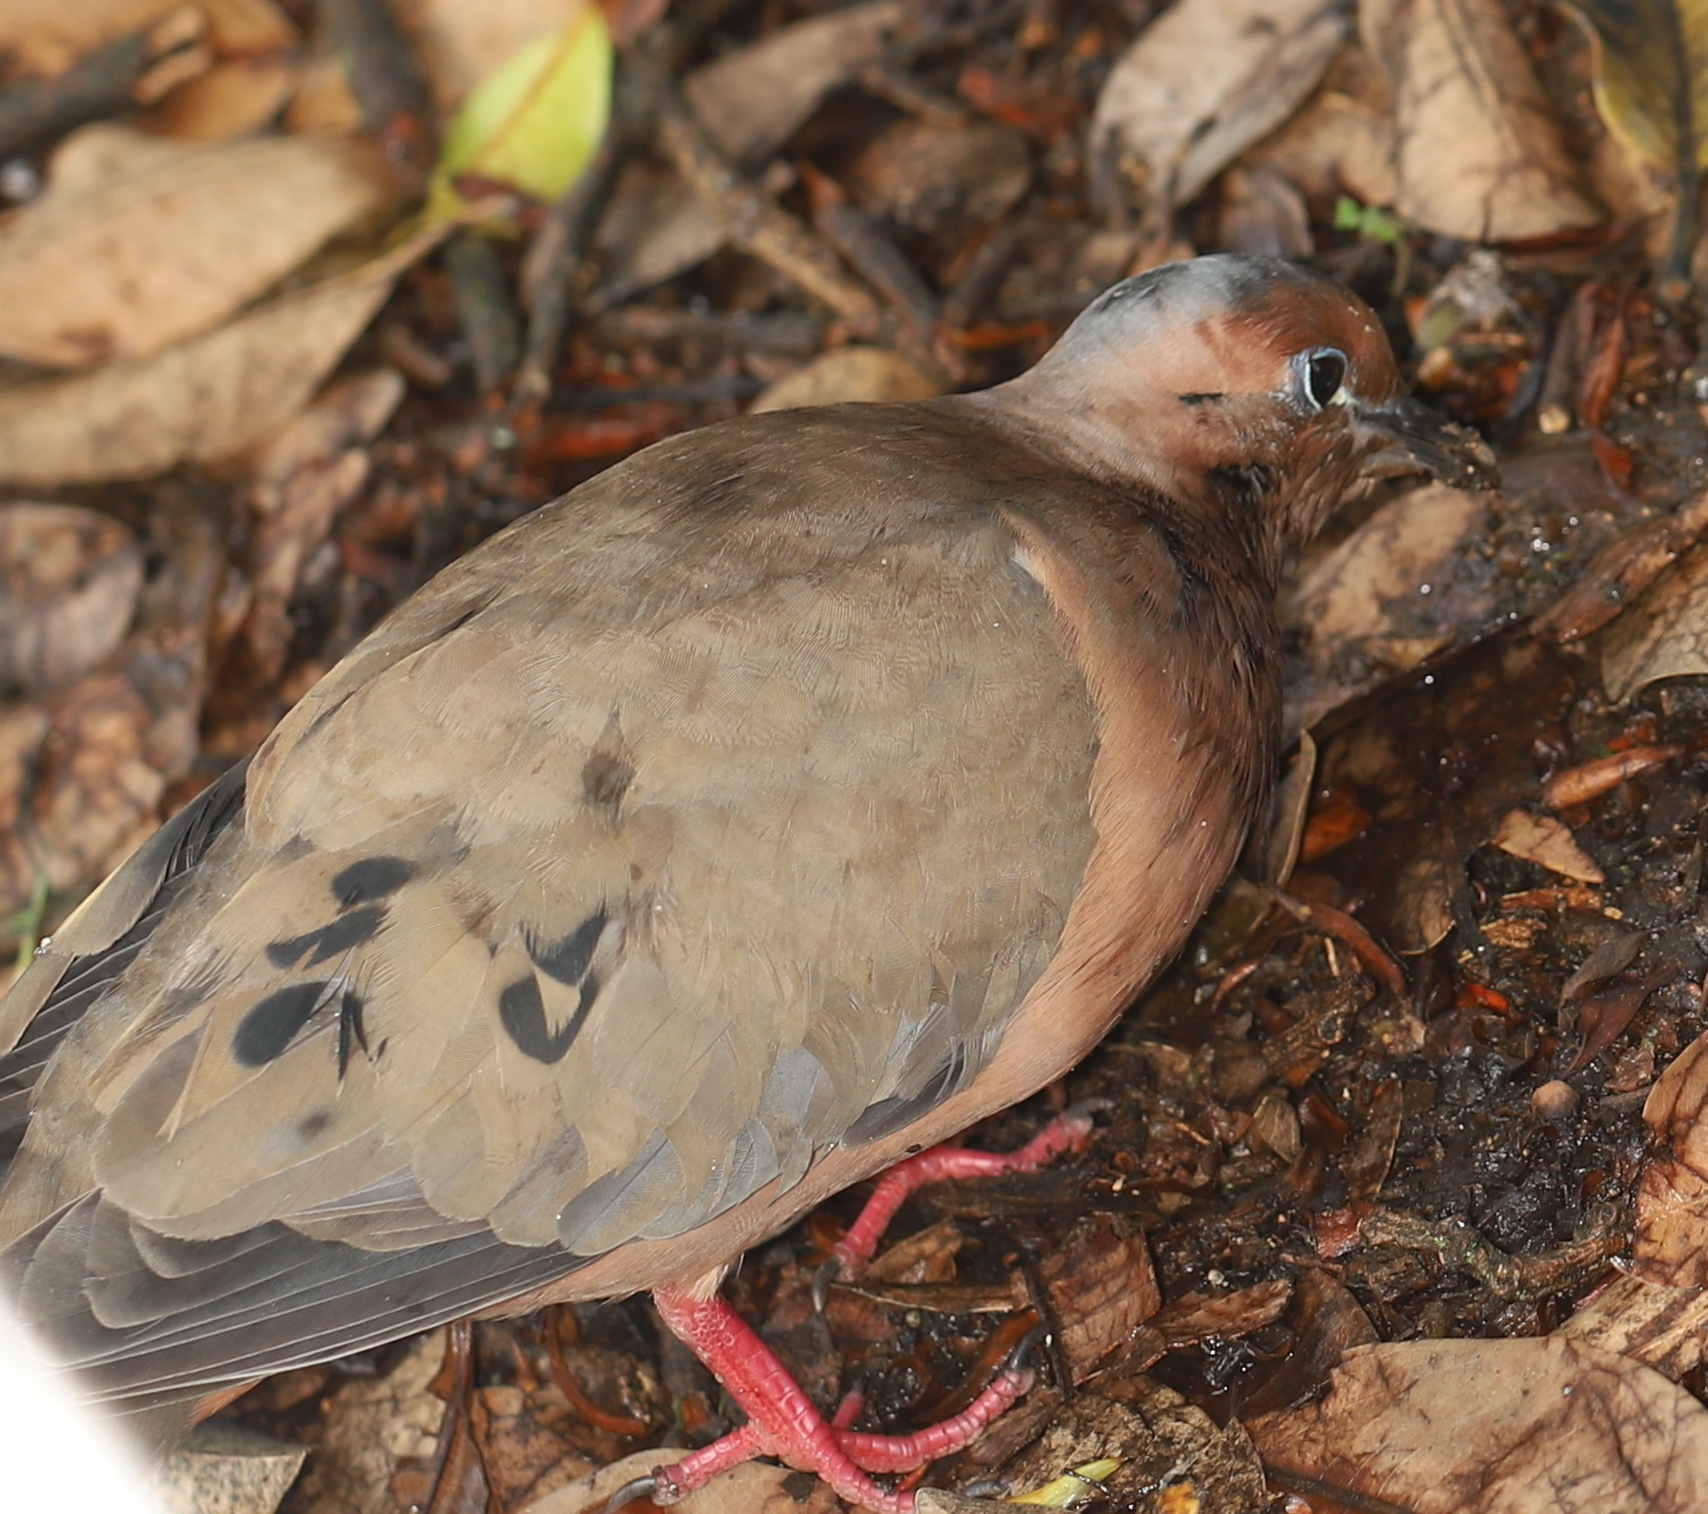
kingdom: Animalia
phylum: Chordata
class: Aves
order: Columbiformes
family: Columbidae
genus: Zenaida
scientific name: Zenaida auriculata
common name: Eared dove
